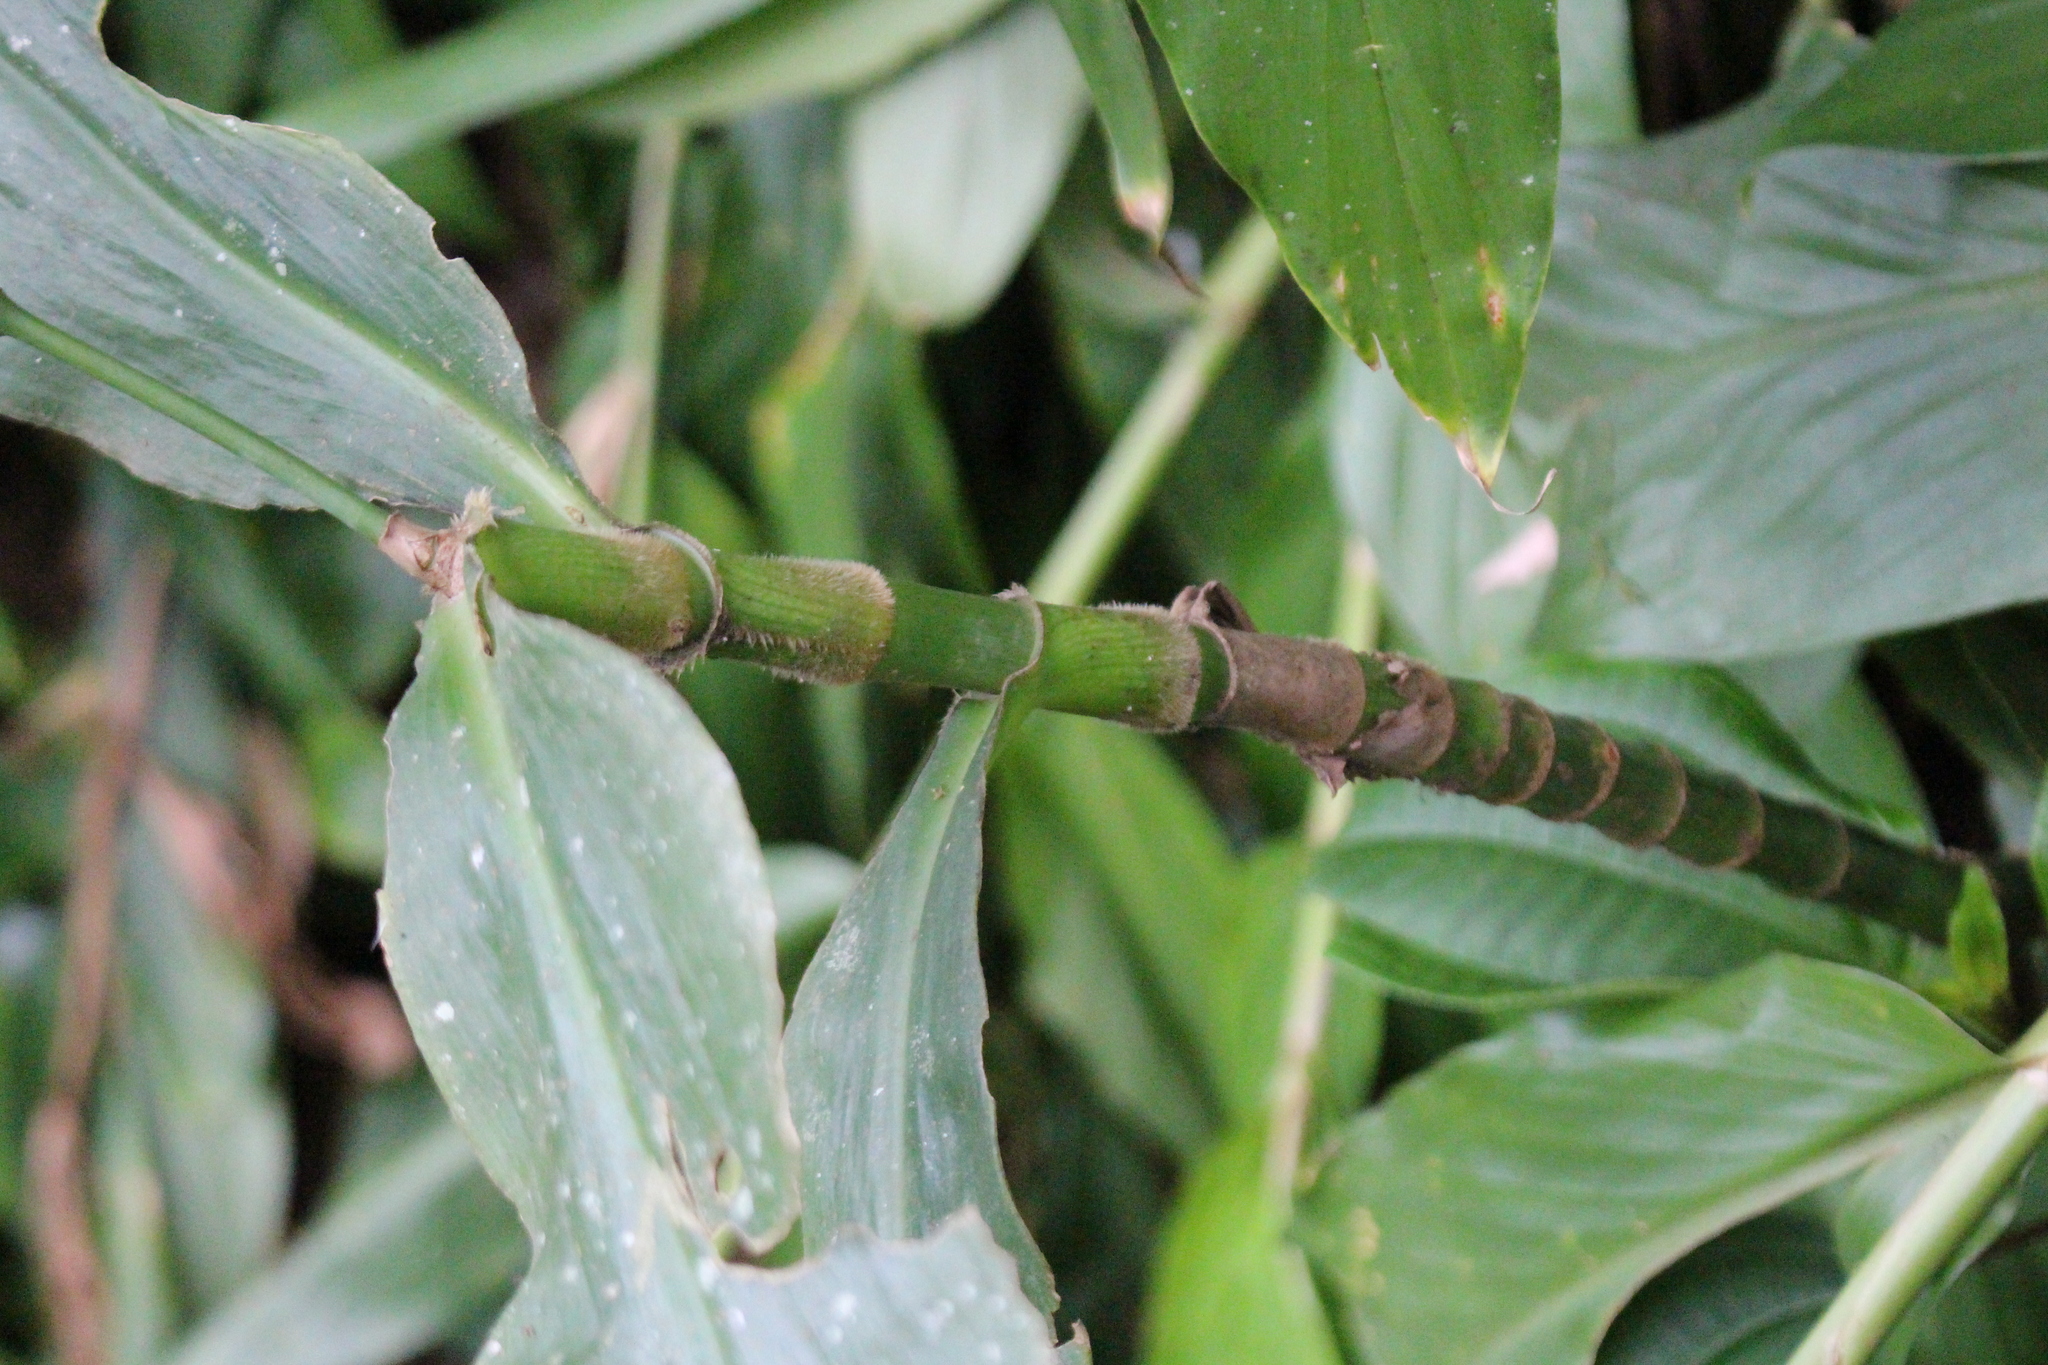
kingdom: Plantae
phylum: Tracheophyta
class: Liliopsida
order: Commelinales
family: Commelinaceae
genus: Tradescantia
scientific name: Tradescantia zanonia
